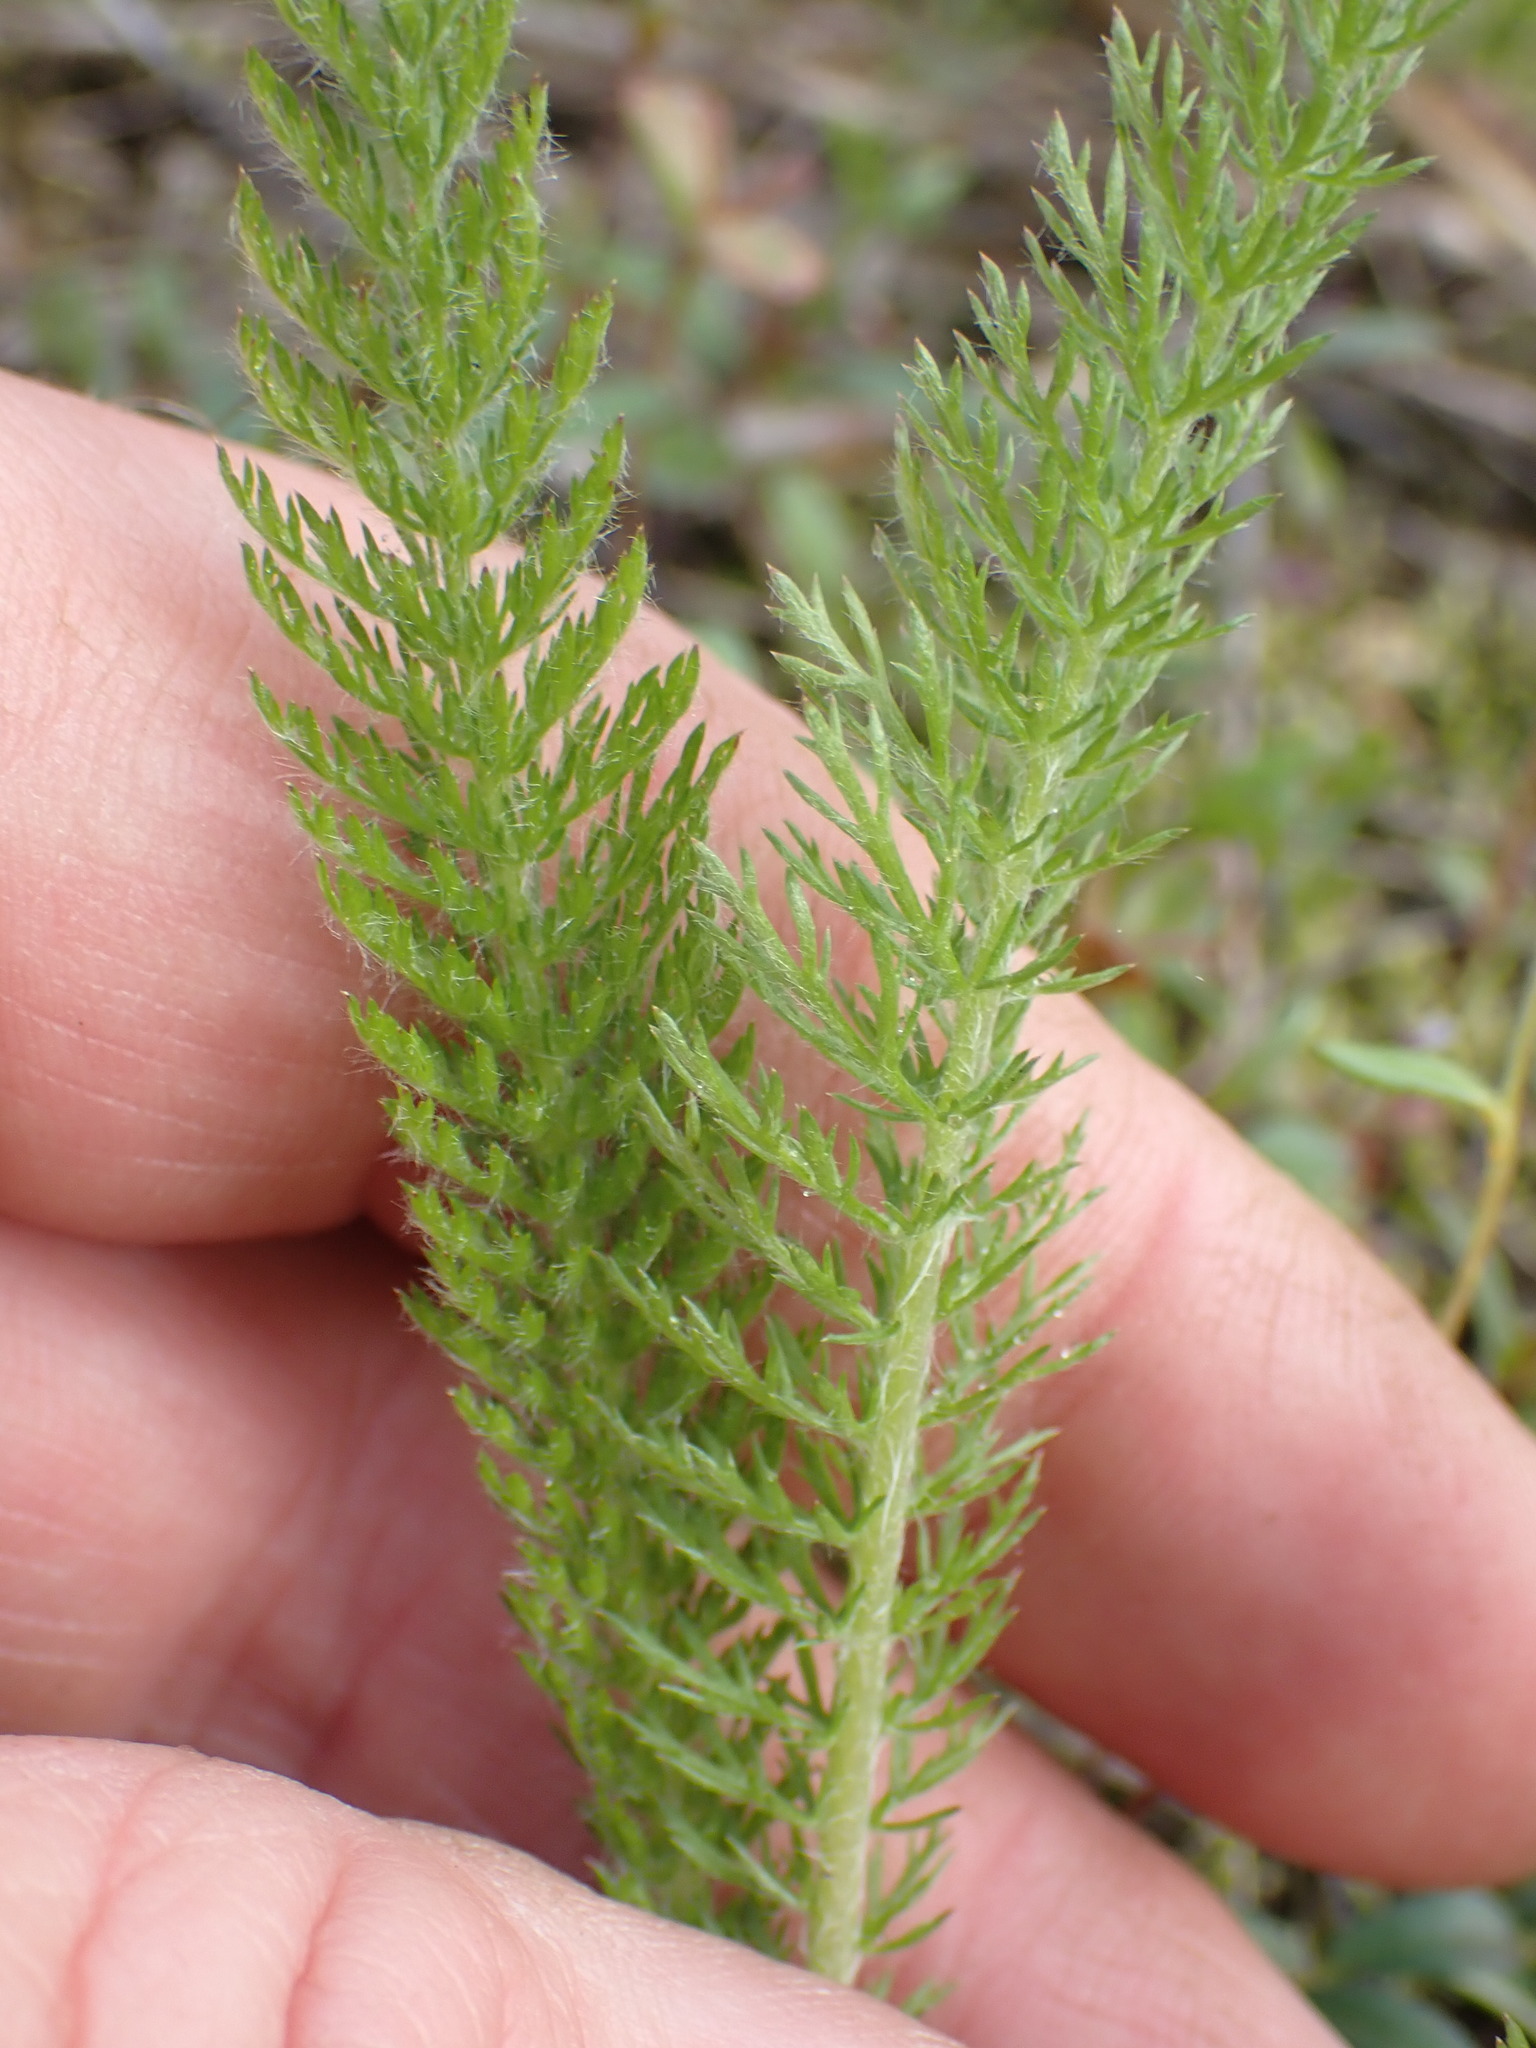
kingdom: Plantae
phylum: Tracheophyta
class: Magnoliopsida
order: Asterales
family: Asteraceae
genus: Achillea
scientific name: Achillea millefolium
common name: Yarrow
